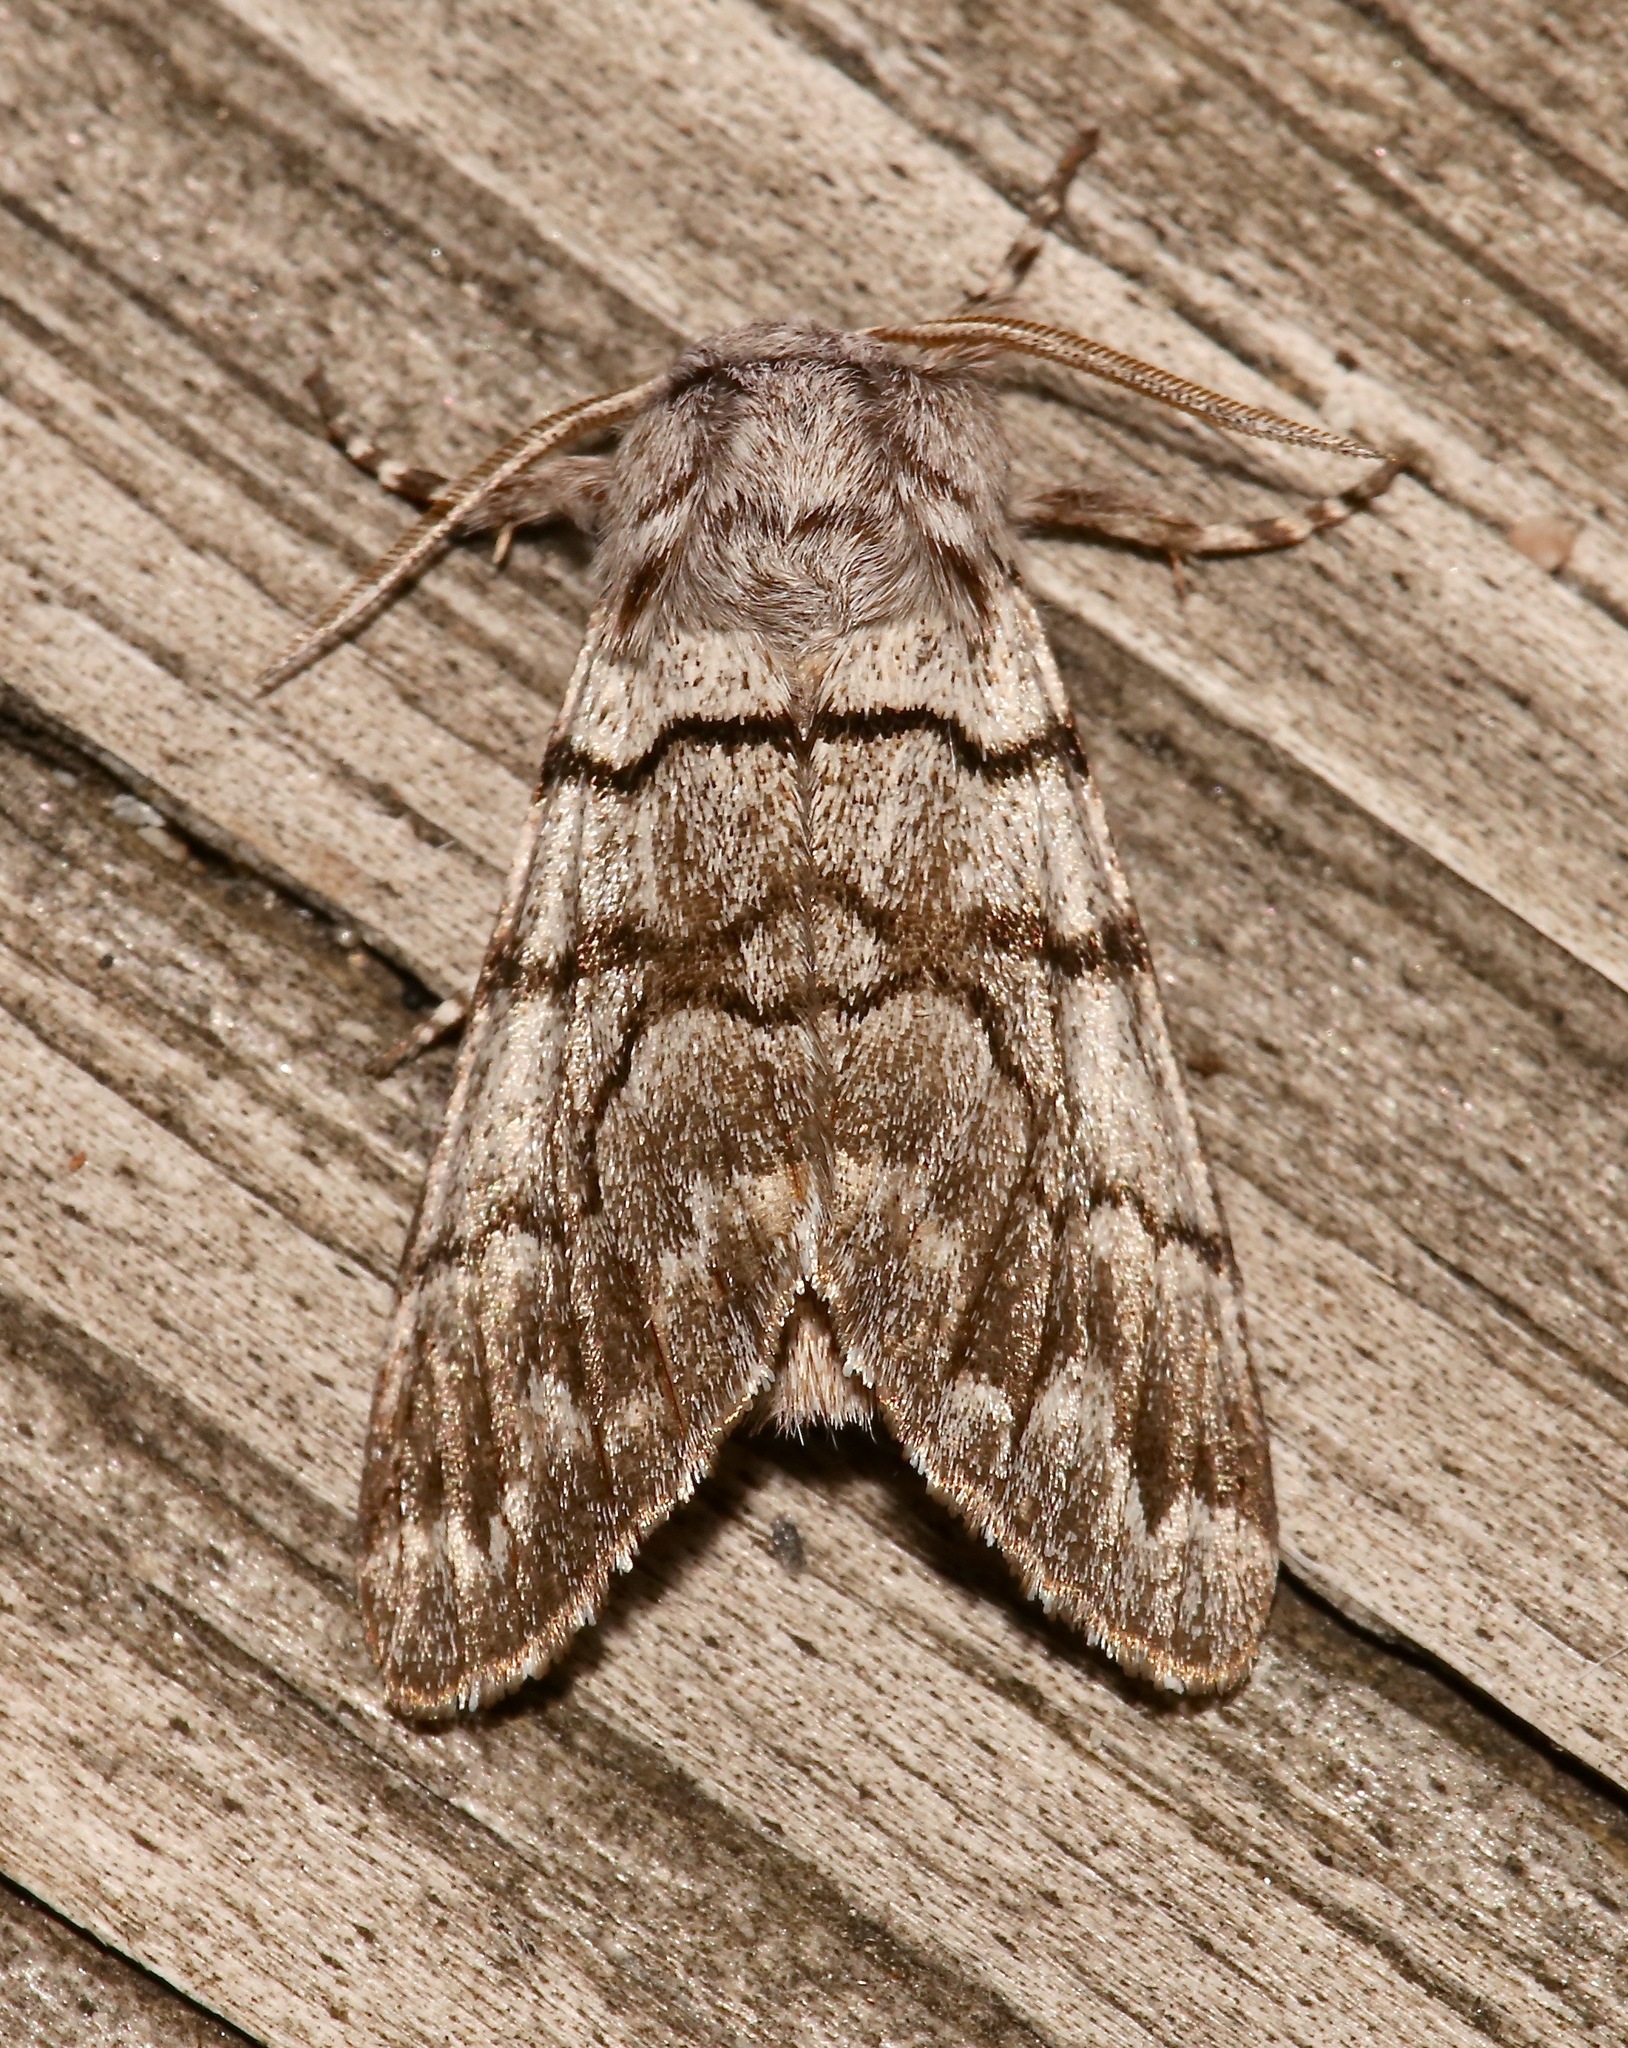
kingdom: Animalia
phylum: Arthropoda
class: Insecta
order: Lepidoptera
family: Noctuidae
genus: Panthea
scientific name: Panthea furcilla
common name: Eastern panthea moth
